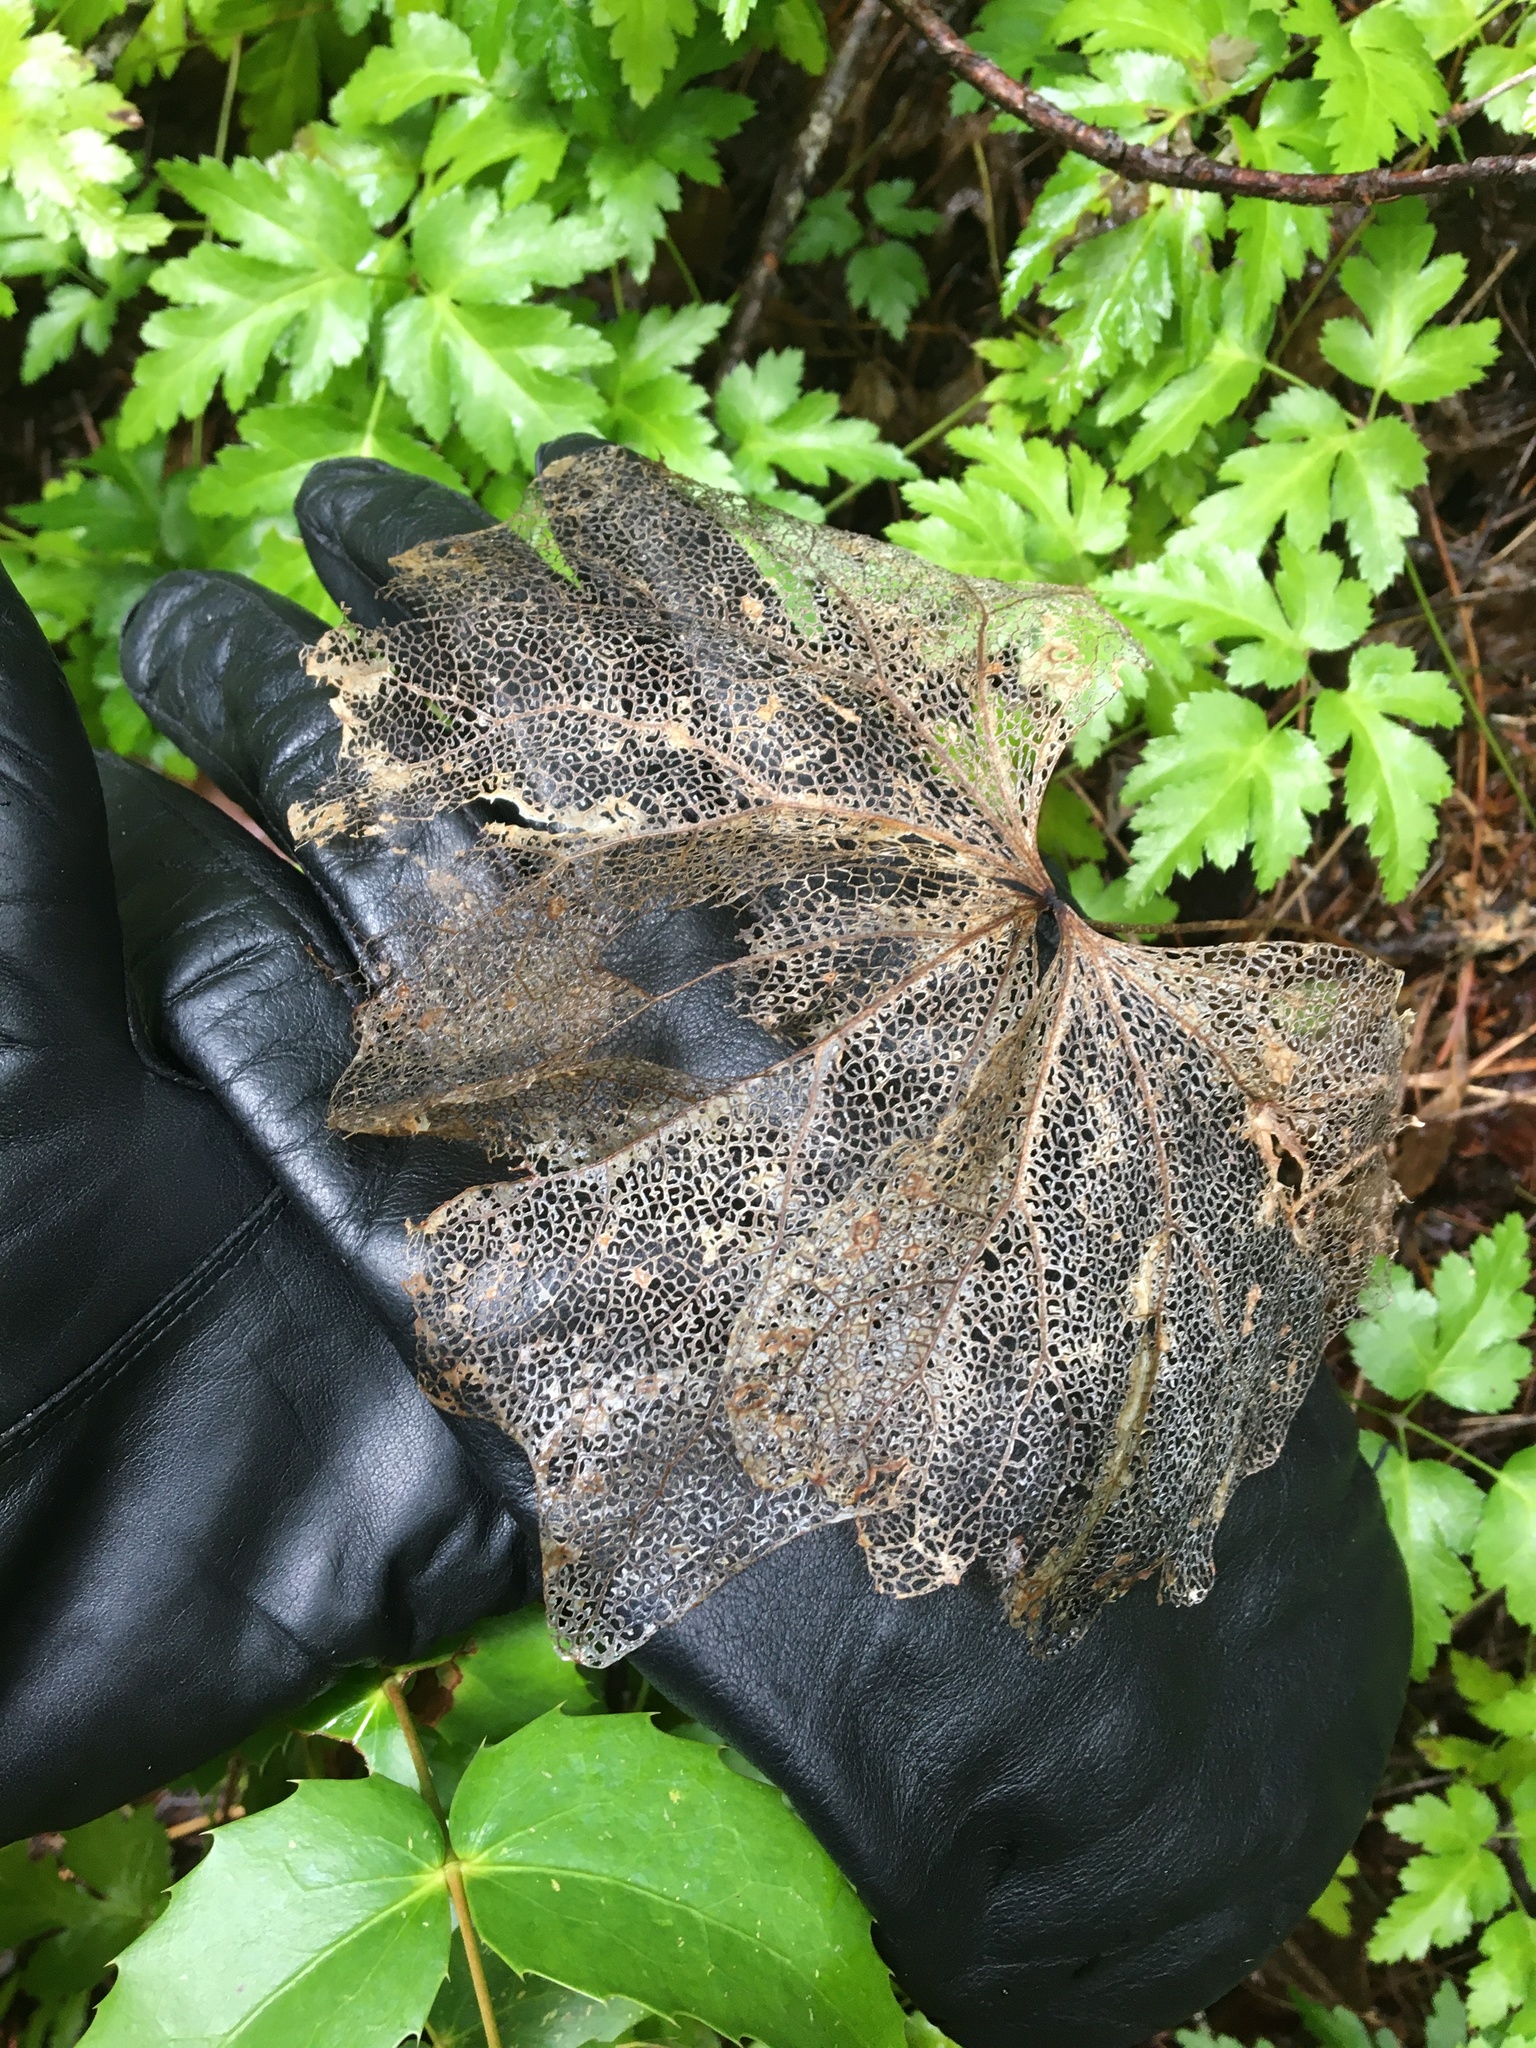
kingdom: Plantae
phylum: Tracheophyta
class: Magnoliopsida
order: Ranunculales
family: Berberidaceae
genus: Achlys
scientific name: Achlys triphylla
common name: Vanilla-leaf
